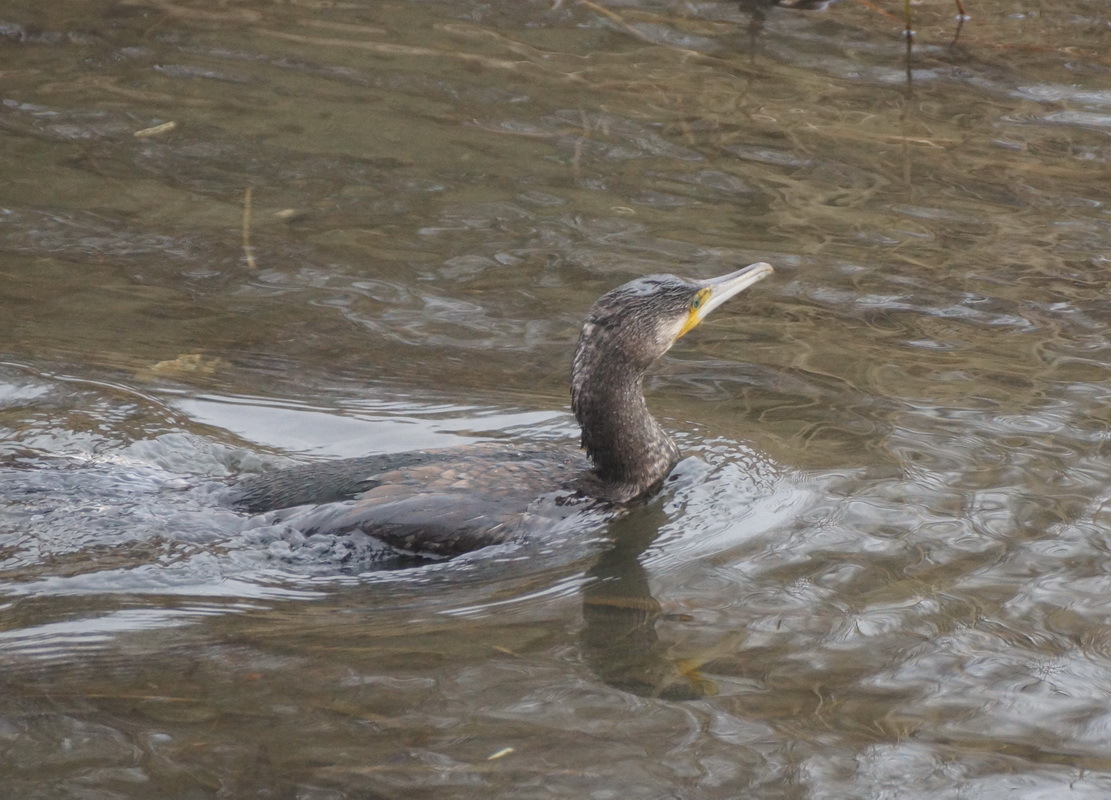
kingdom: Animalia
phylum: Chordata
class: Aves
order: Suliformes
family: Phalacrocoracidae
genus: Phalacrocorax
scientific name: Phalacrocorax carbo
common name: Great cormorant
